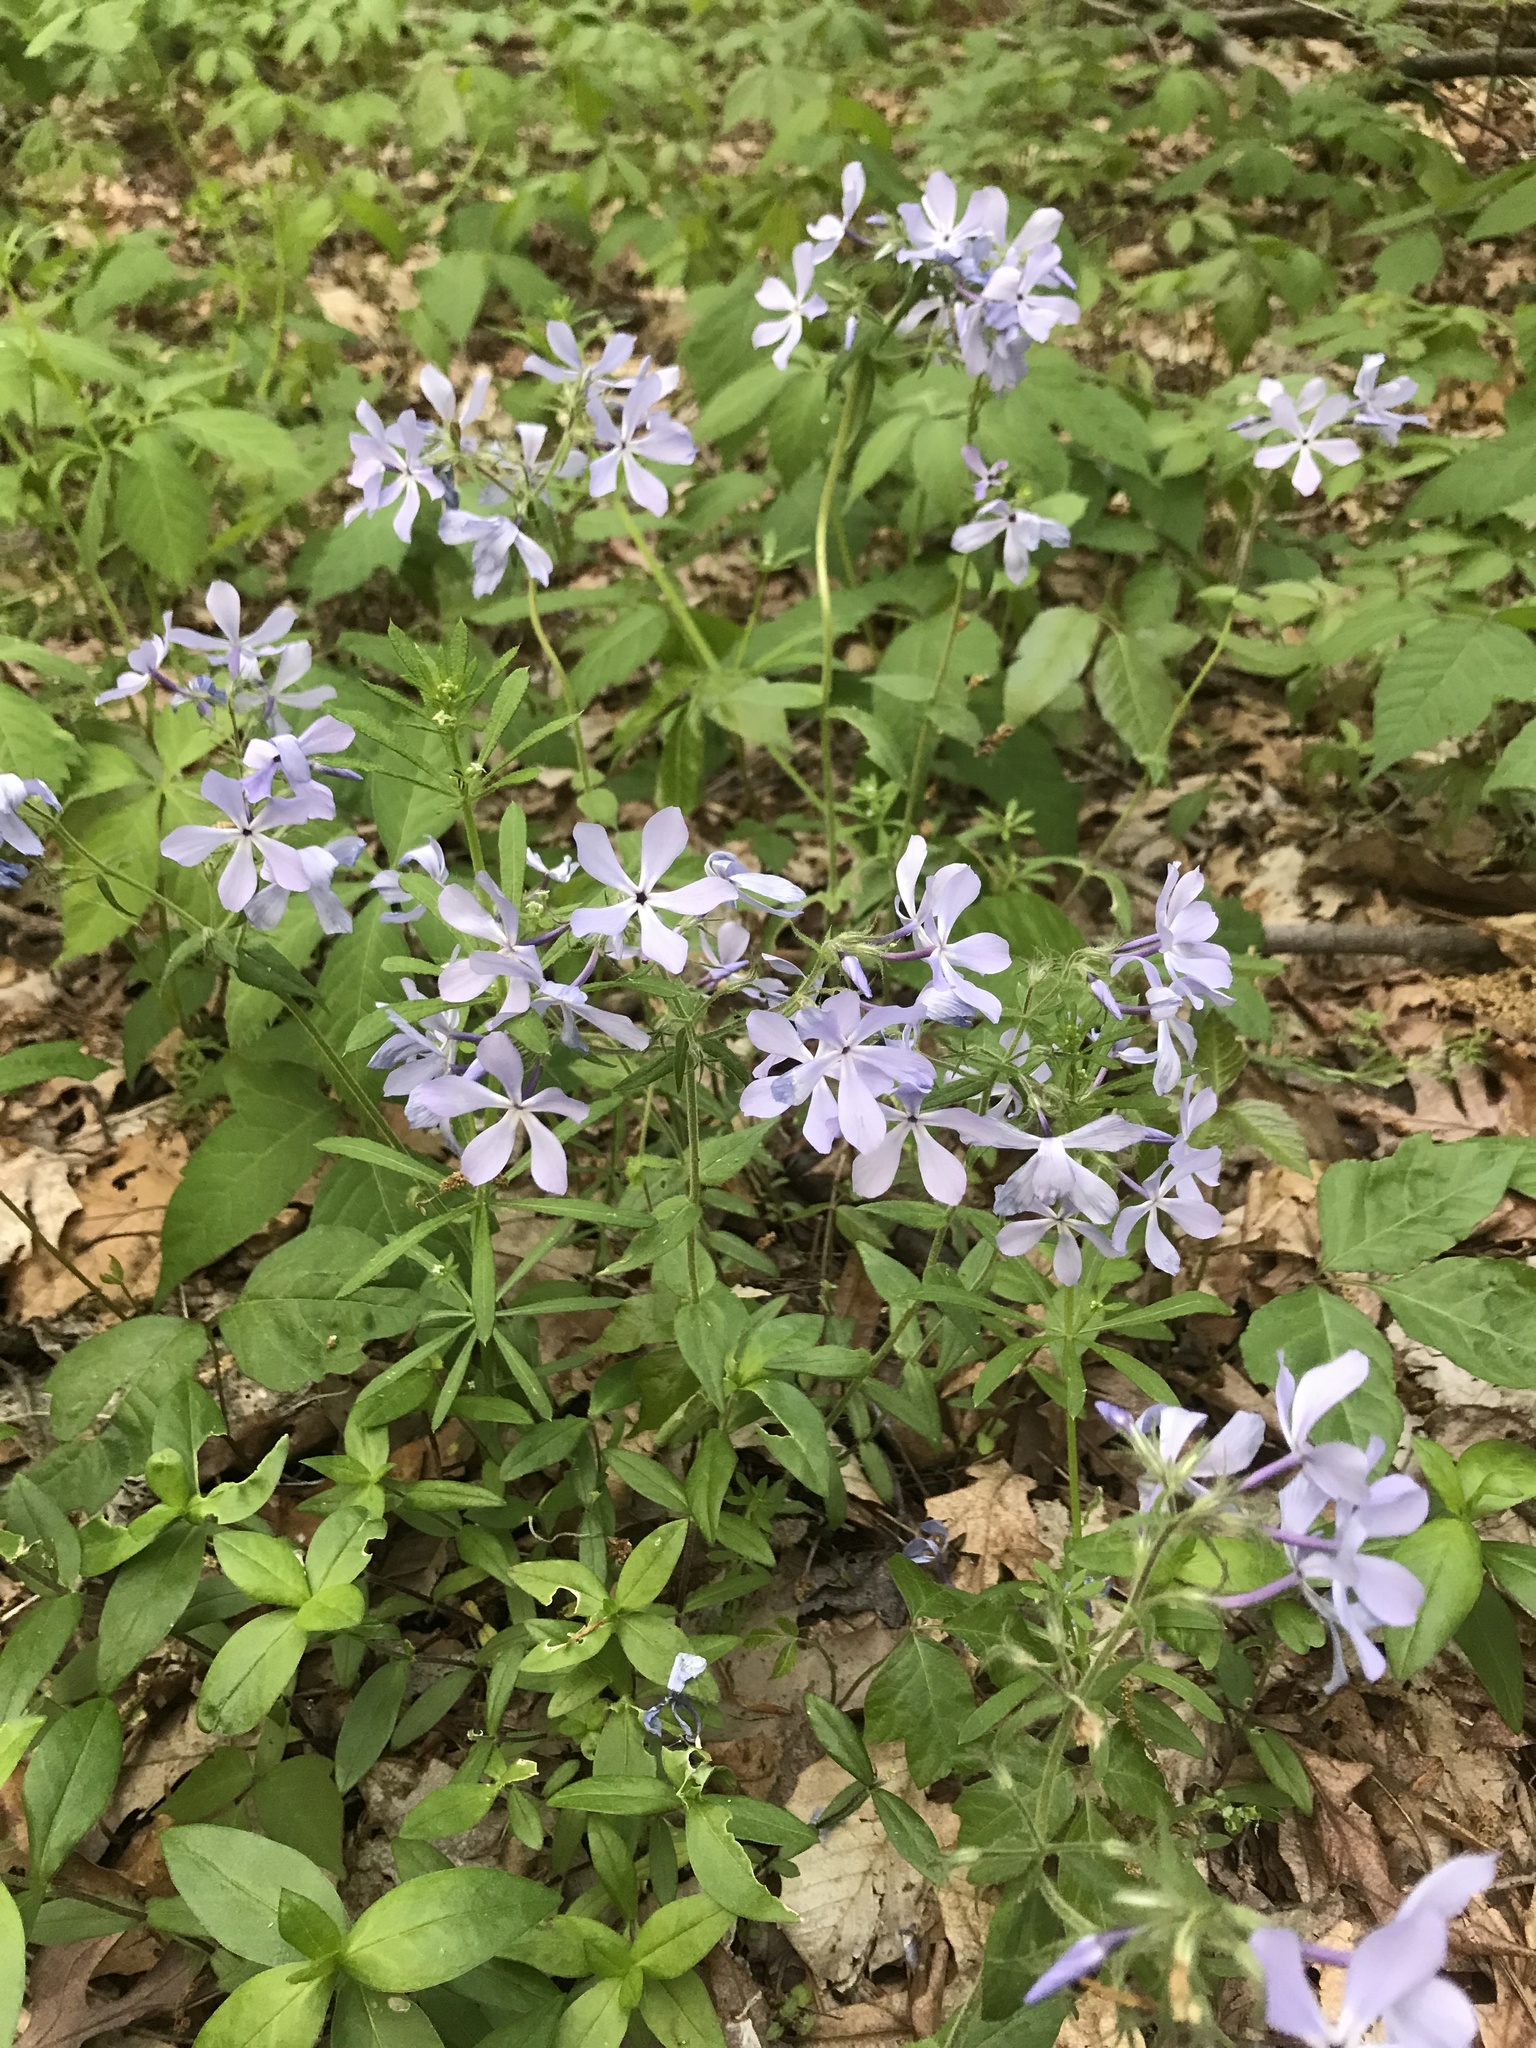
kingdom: Plantae
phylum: Tracheophyta
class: Magnoliopsida
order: Ericales
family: Polemoniaceae
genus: Phlox
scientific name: Phlox divaricata
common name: Blue phlox
